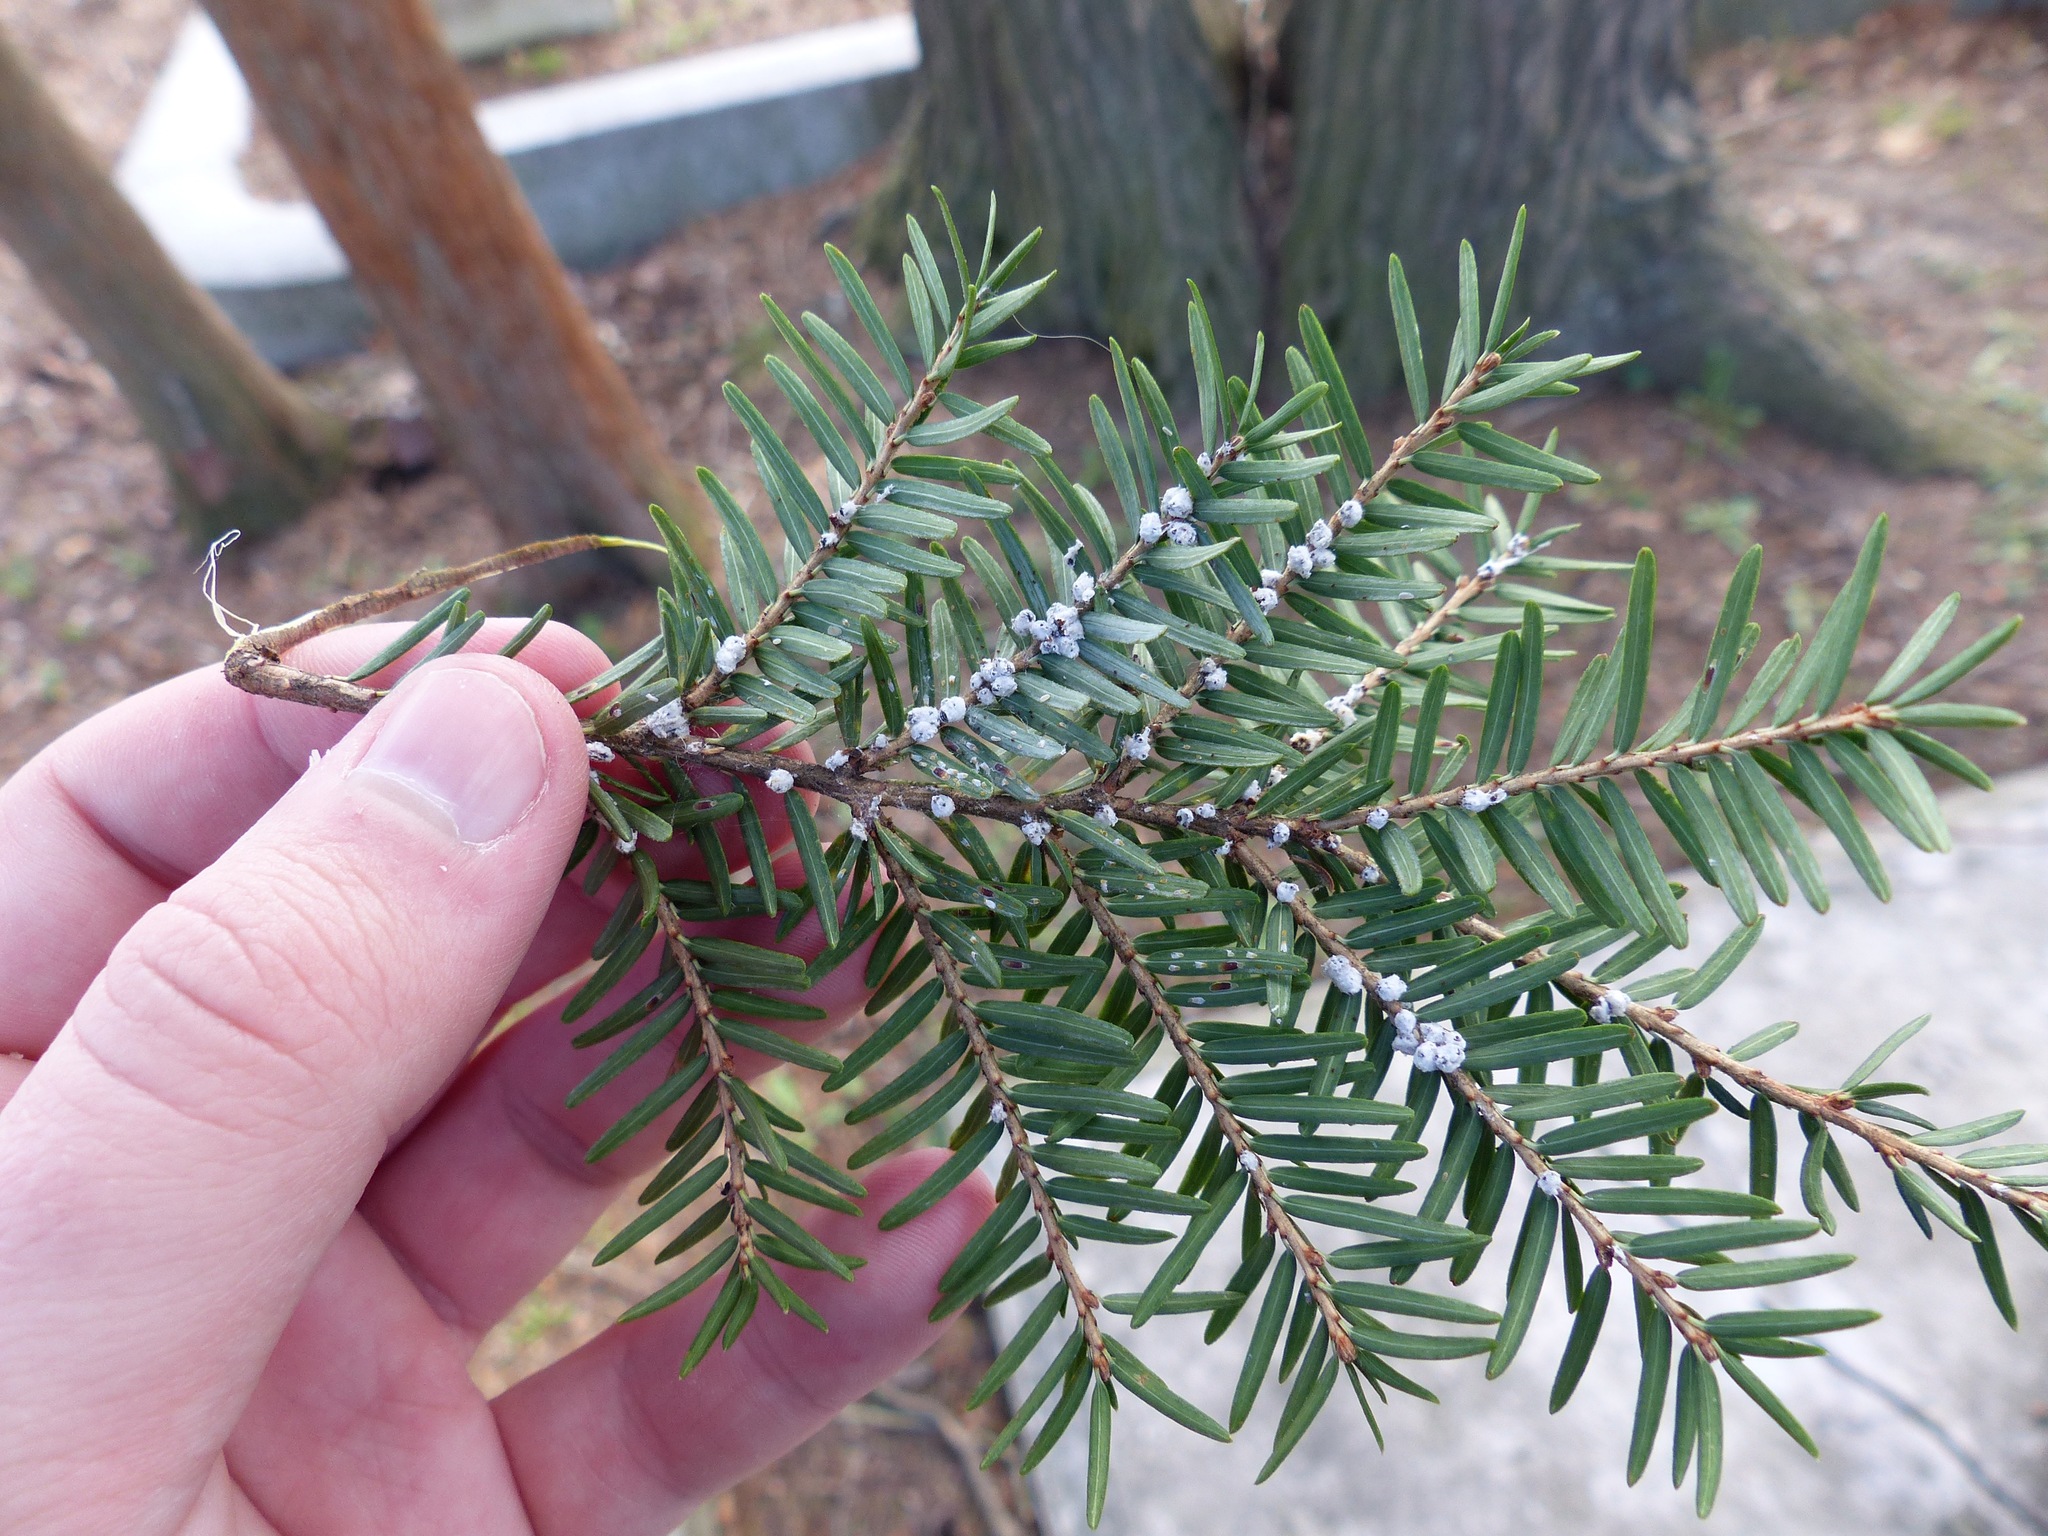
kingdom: Animalia
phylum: Arthropoda
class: Insecta
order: Hemiptera
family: Adelgidae
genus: Adelges
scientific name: Adelges tsugae
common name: Hemlock woolly adelgid
